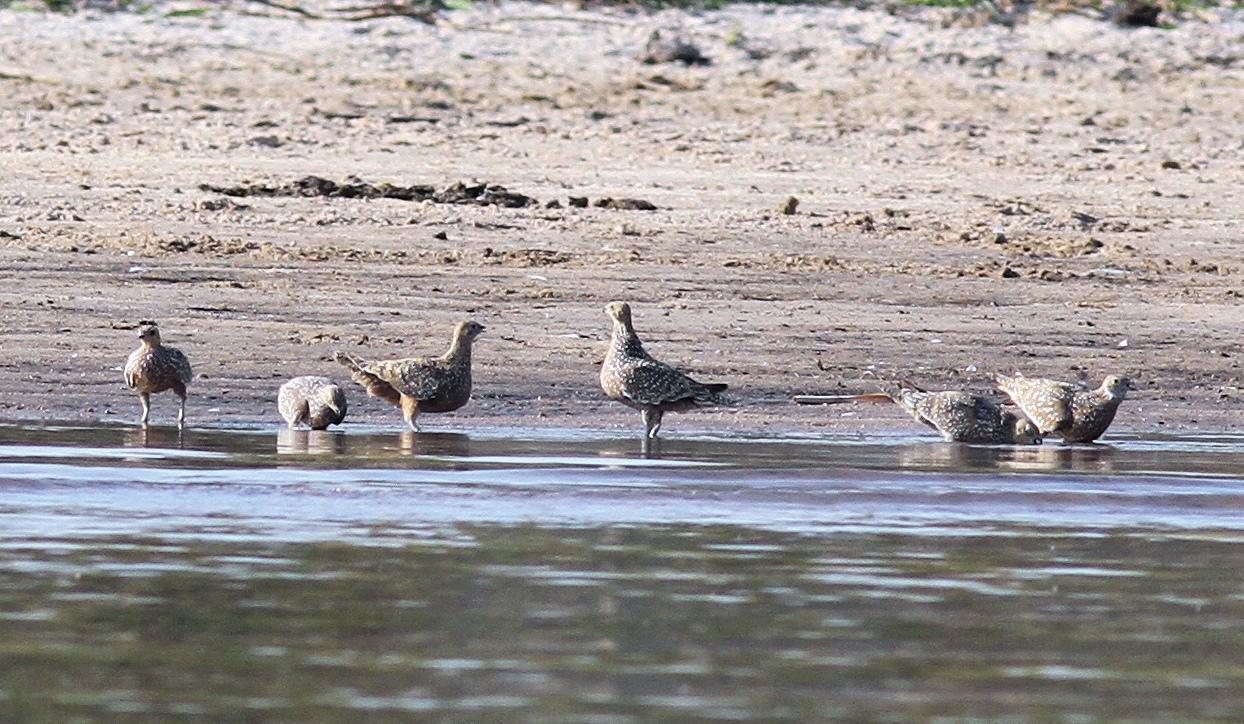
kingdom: Animalia
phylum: Chordata
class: Aves
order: Pteroclidiformes
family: Pteroclididae
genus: Pterocles
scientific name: Pterocles burchelli
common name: Burchell's sandgrouse
